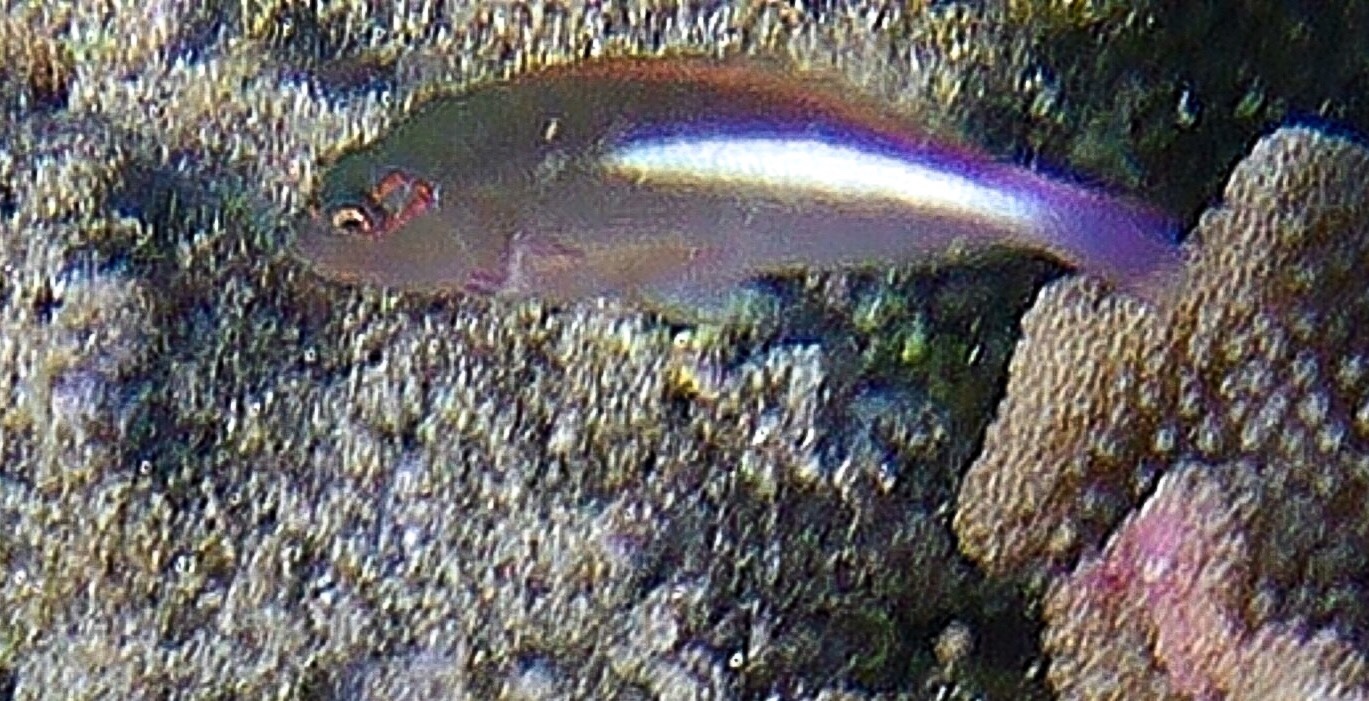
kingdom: Animalia
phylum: Chordata
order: Perciformes
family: Cirrhitidae
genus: Paracirrhites
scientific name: Paracirrhites arcatus
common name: Arc-eye hawkfish
